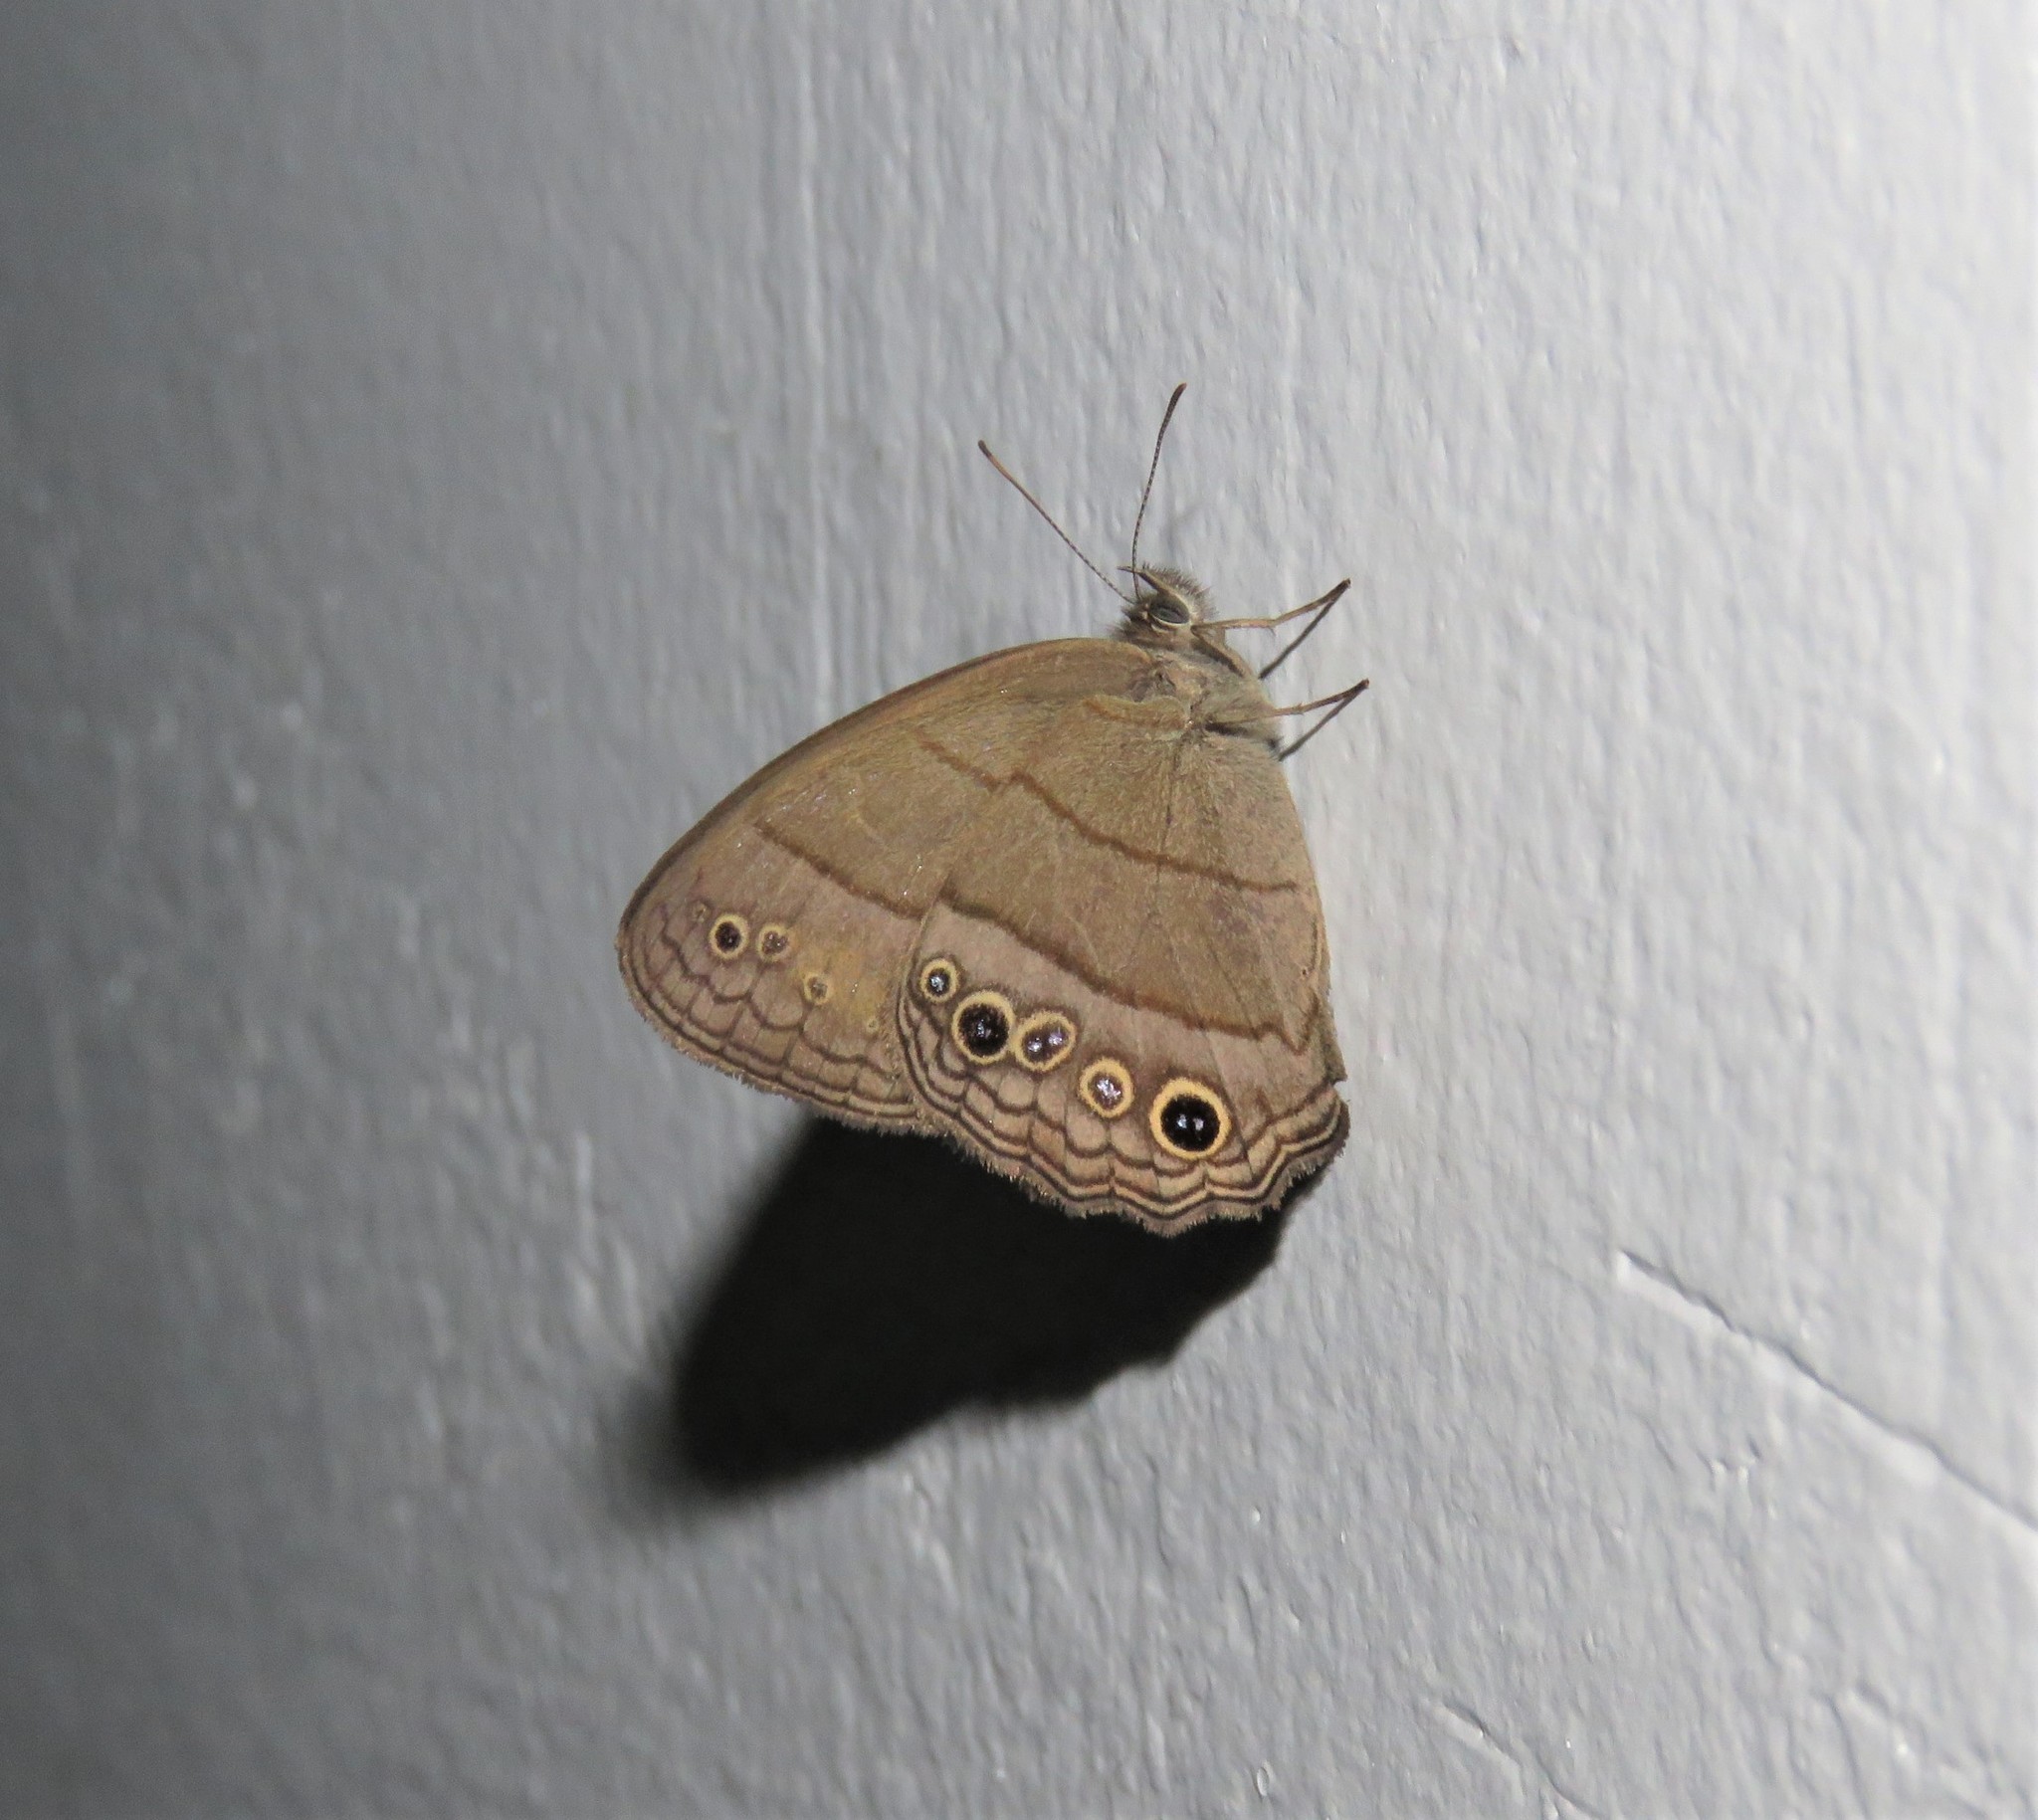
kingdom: Animalia
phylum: Arthropoda
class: Insecta
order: Lepidoptera
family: Nymphalidae
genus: Vareuptychia
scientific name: Vareuptychia similis
